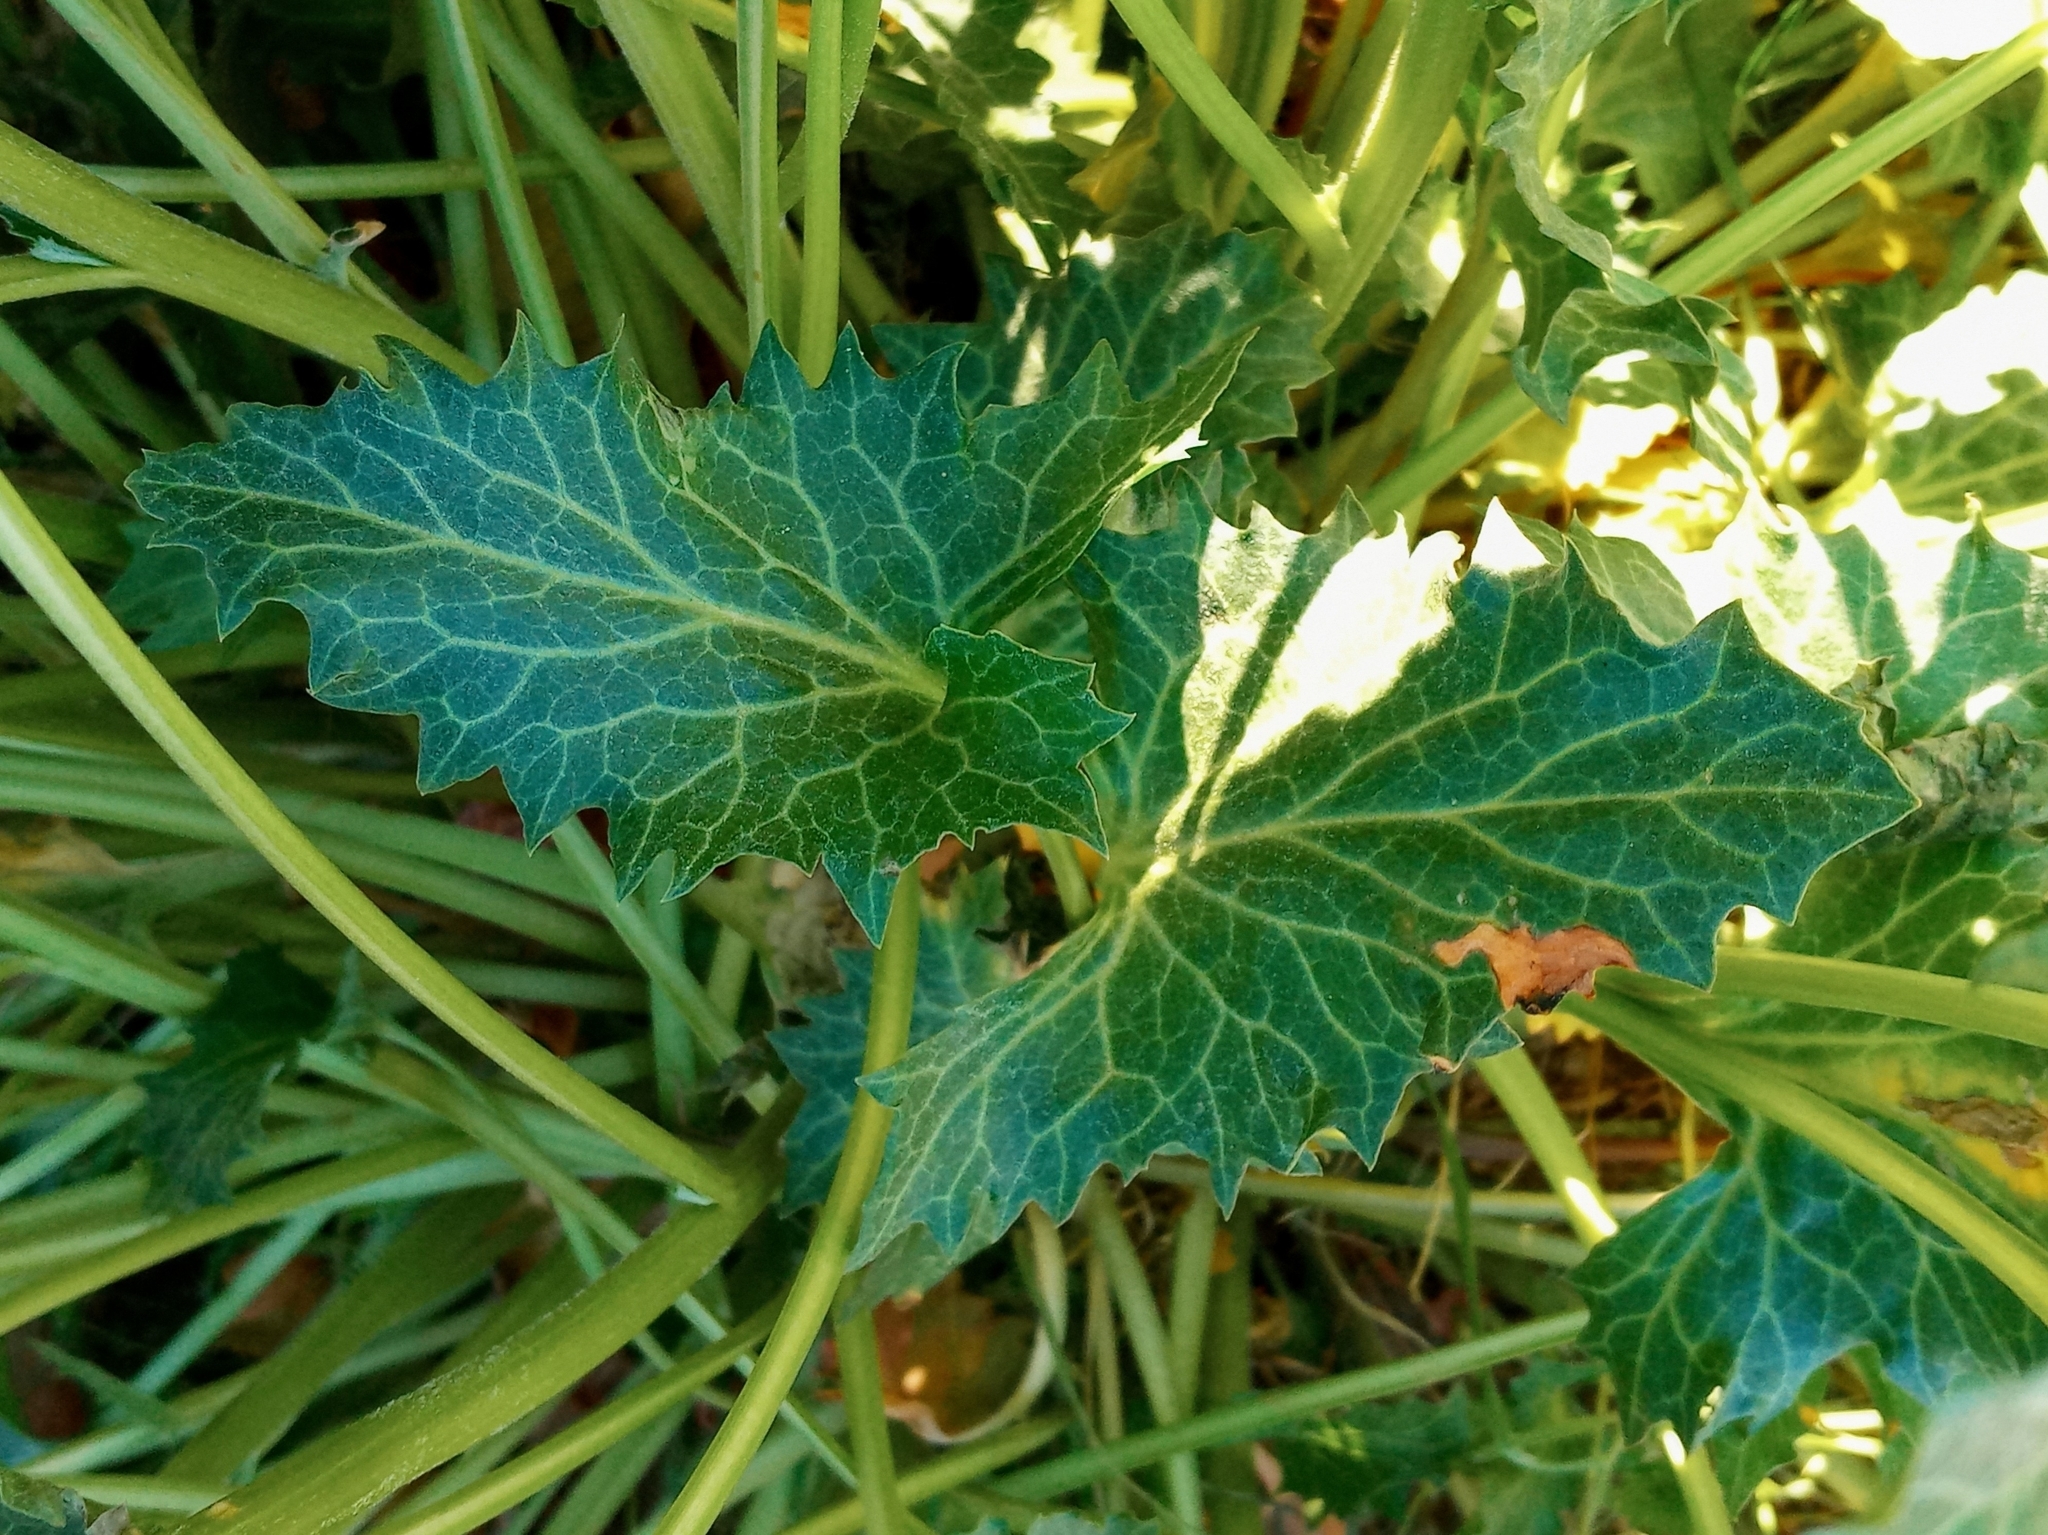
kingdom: Plantae
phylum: Tracheophyta
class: Magnoliopsida
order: Caryophyllales
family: Amaranthaceae
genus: Blitum
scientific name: Blitum californicum
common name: California goosefoot
